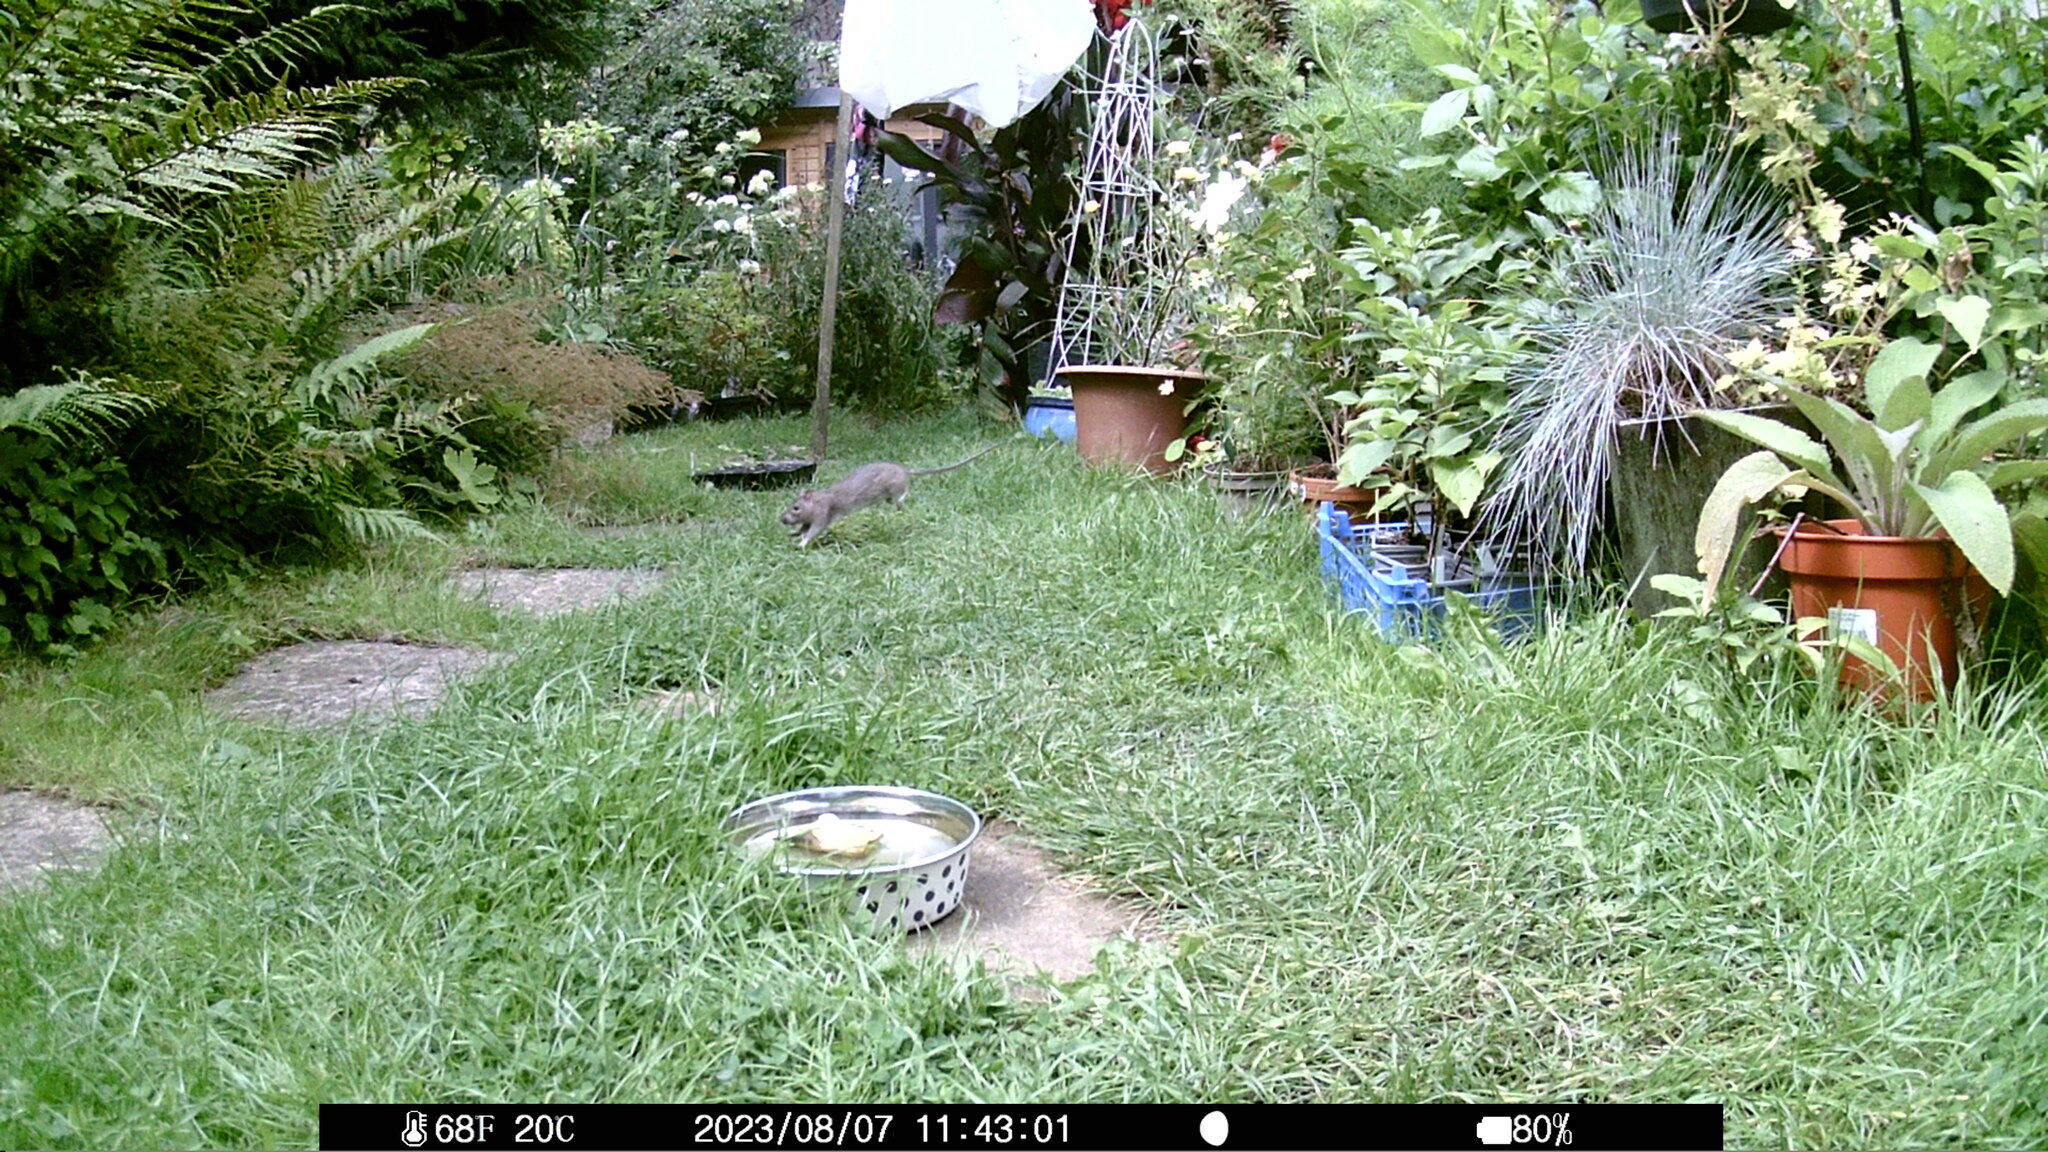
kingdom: Animalia
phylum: Chordata
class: Mammalia
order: Rodentia
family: Muridae
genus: Rattus
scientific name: Rattus norvegicus
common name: Brown rat
